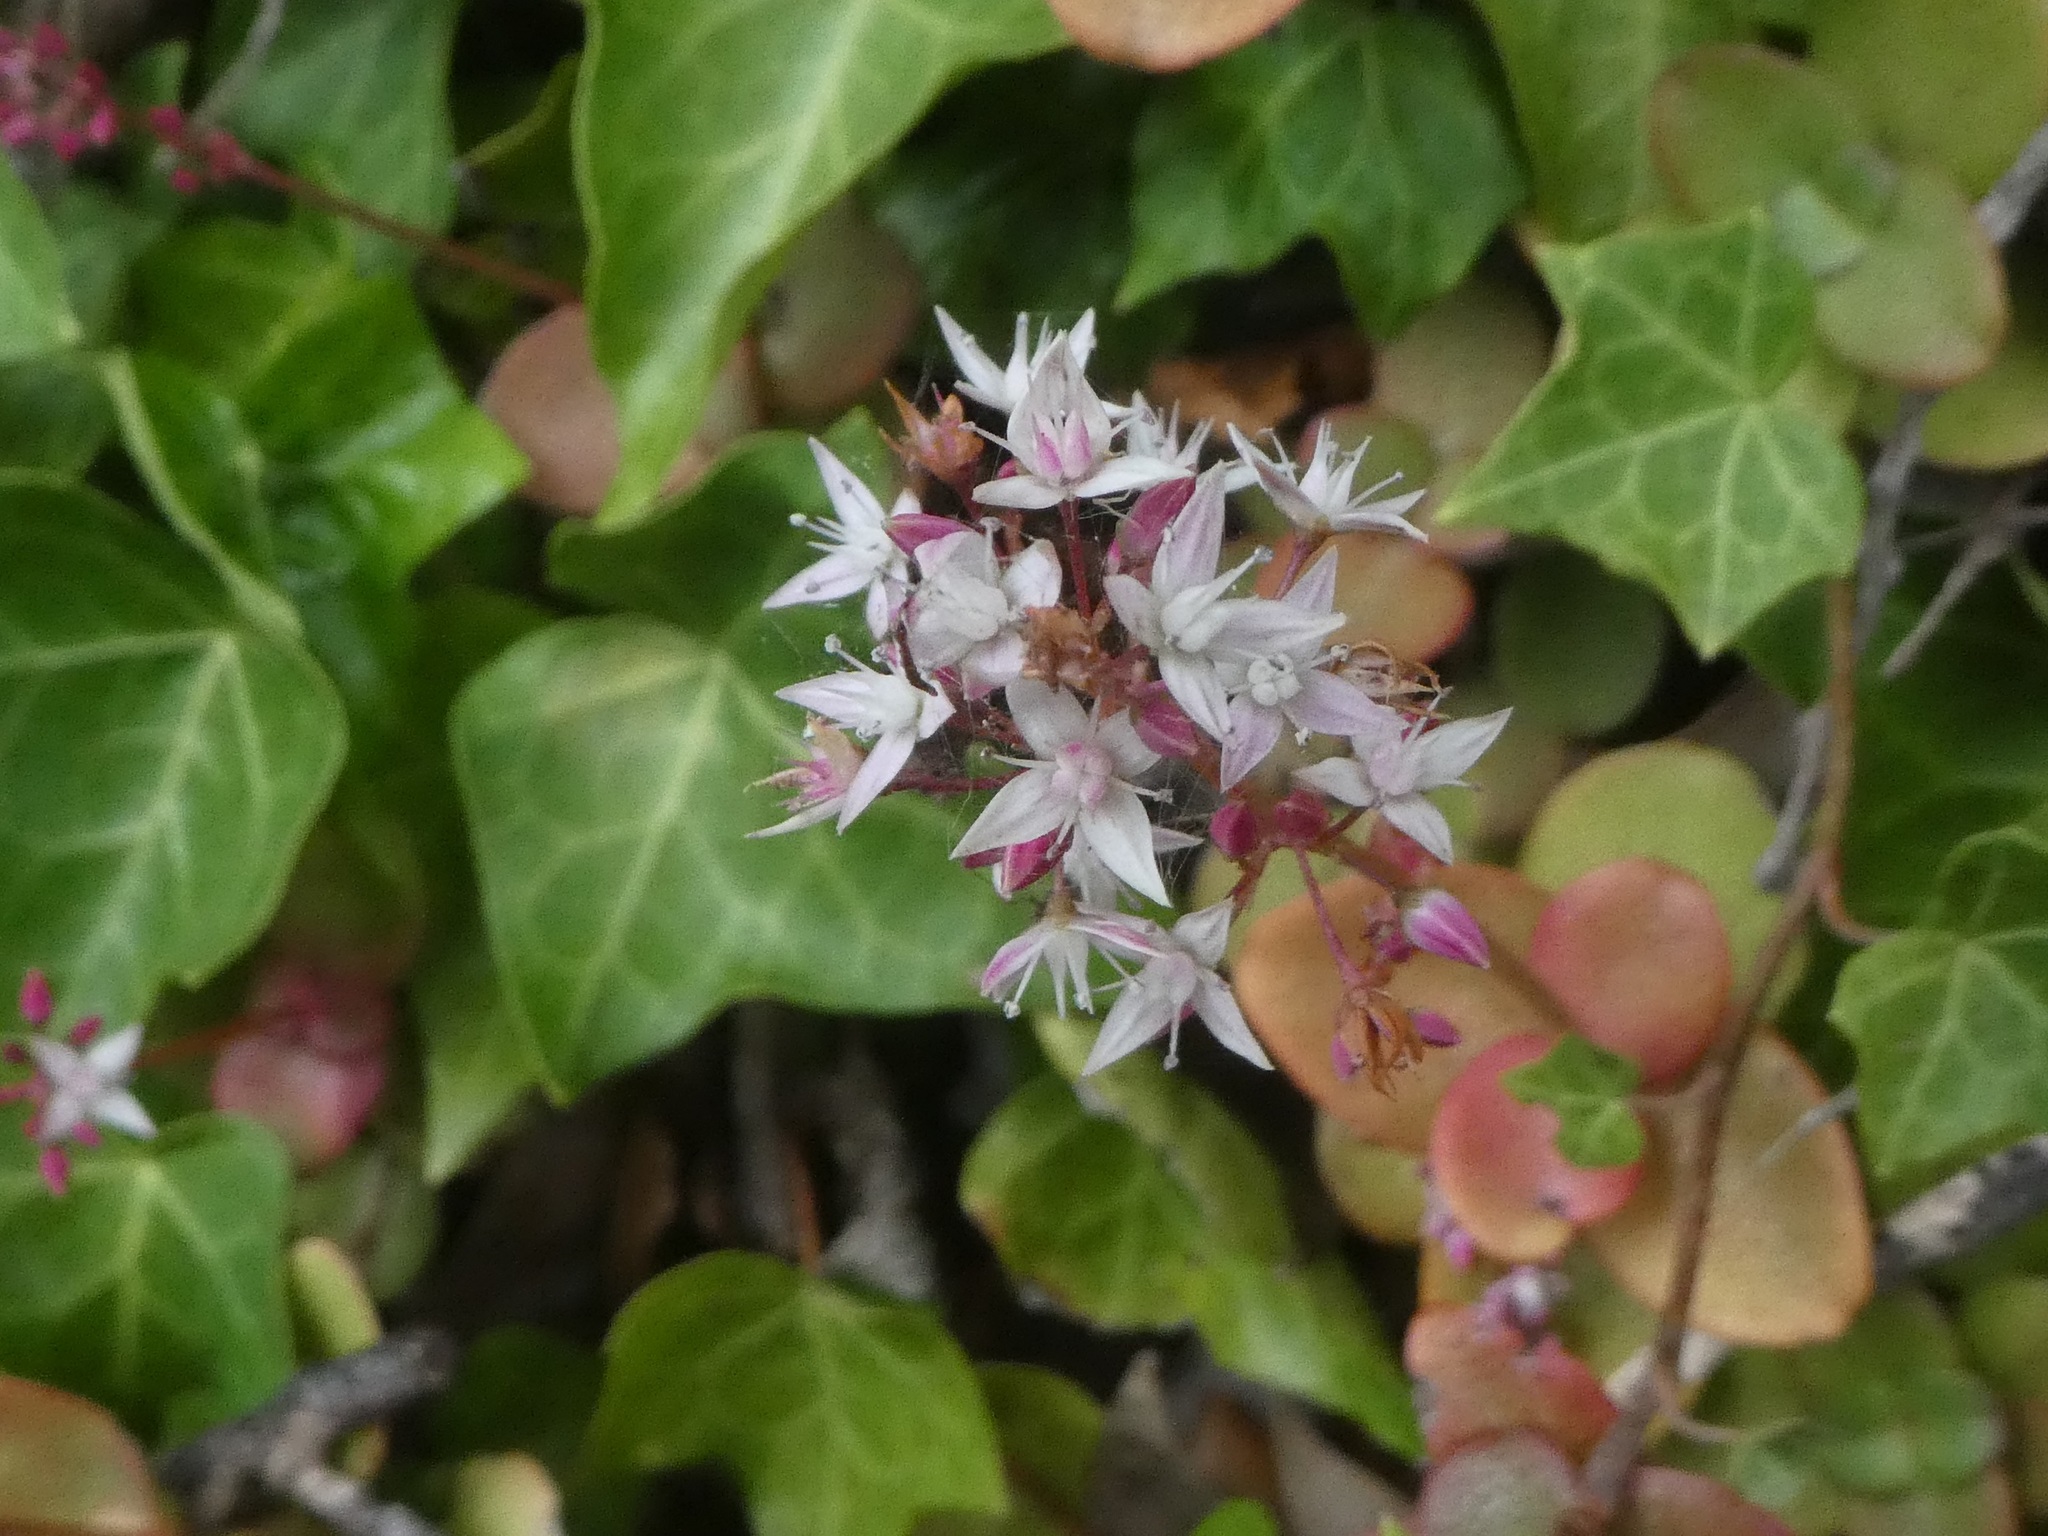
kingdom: Plantae
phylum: Tracheophyta
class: Magnoliopsida
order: Saxifragales
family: Crassulaceae
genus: Crassula
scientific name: Crassula multicava
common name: Cape province pygmyweed
